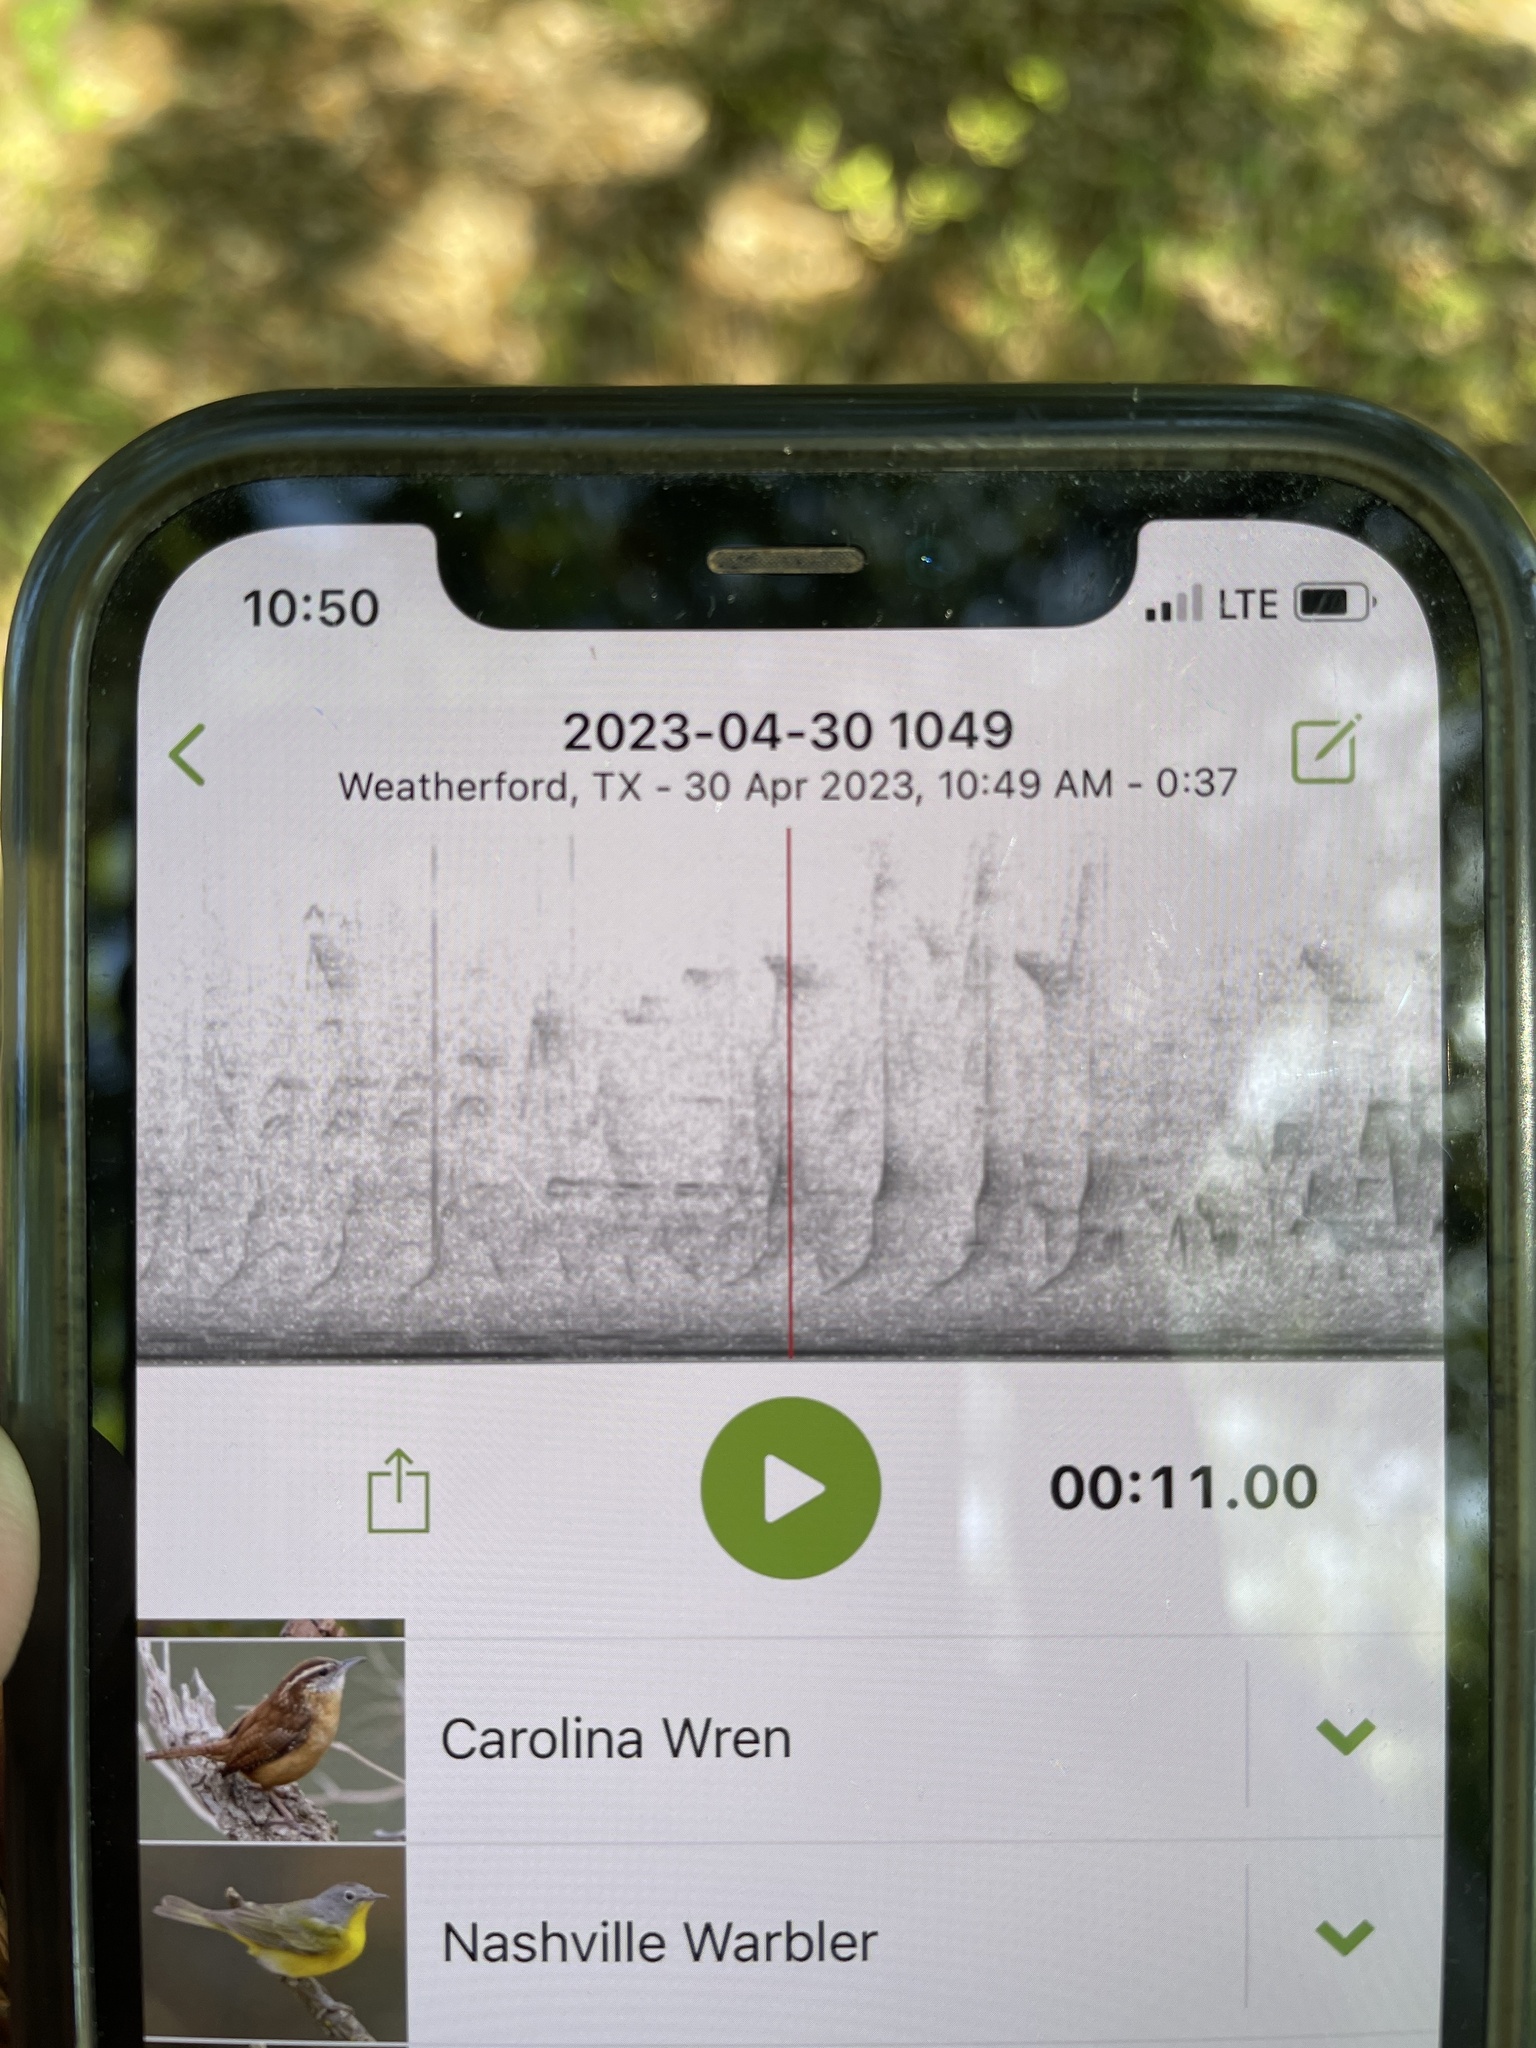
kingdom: Animalia
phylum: Chordata
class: Aves
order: Passeriformes
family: Troglodytidae
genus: Thryothorus
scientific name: Thryothorus ludovicianus
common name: Carolina wren
